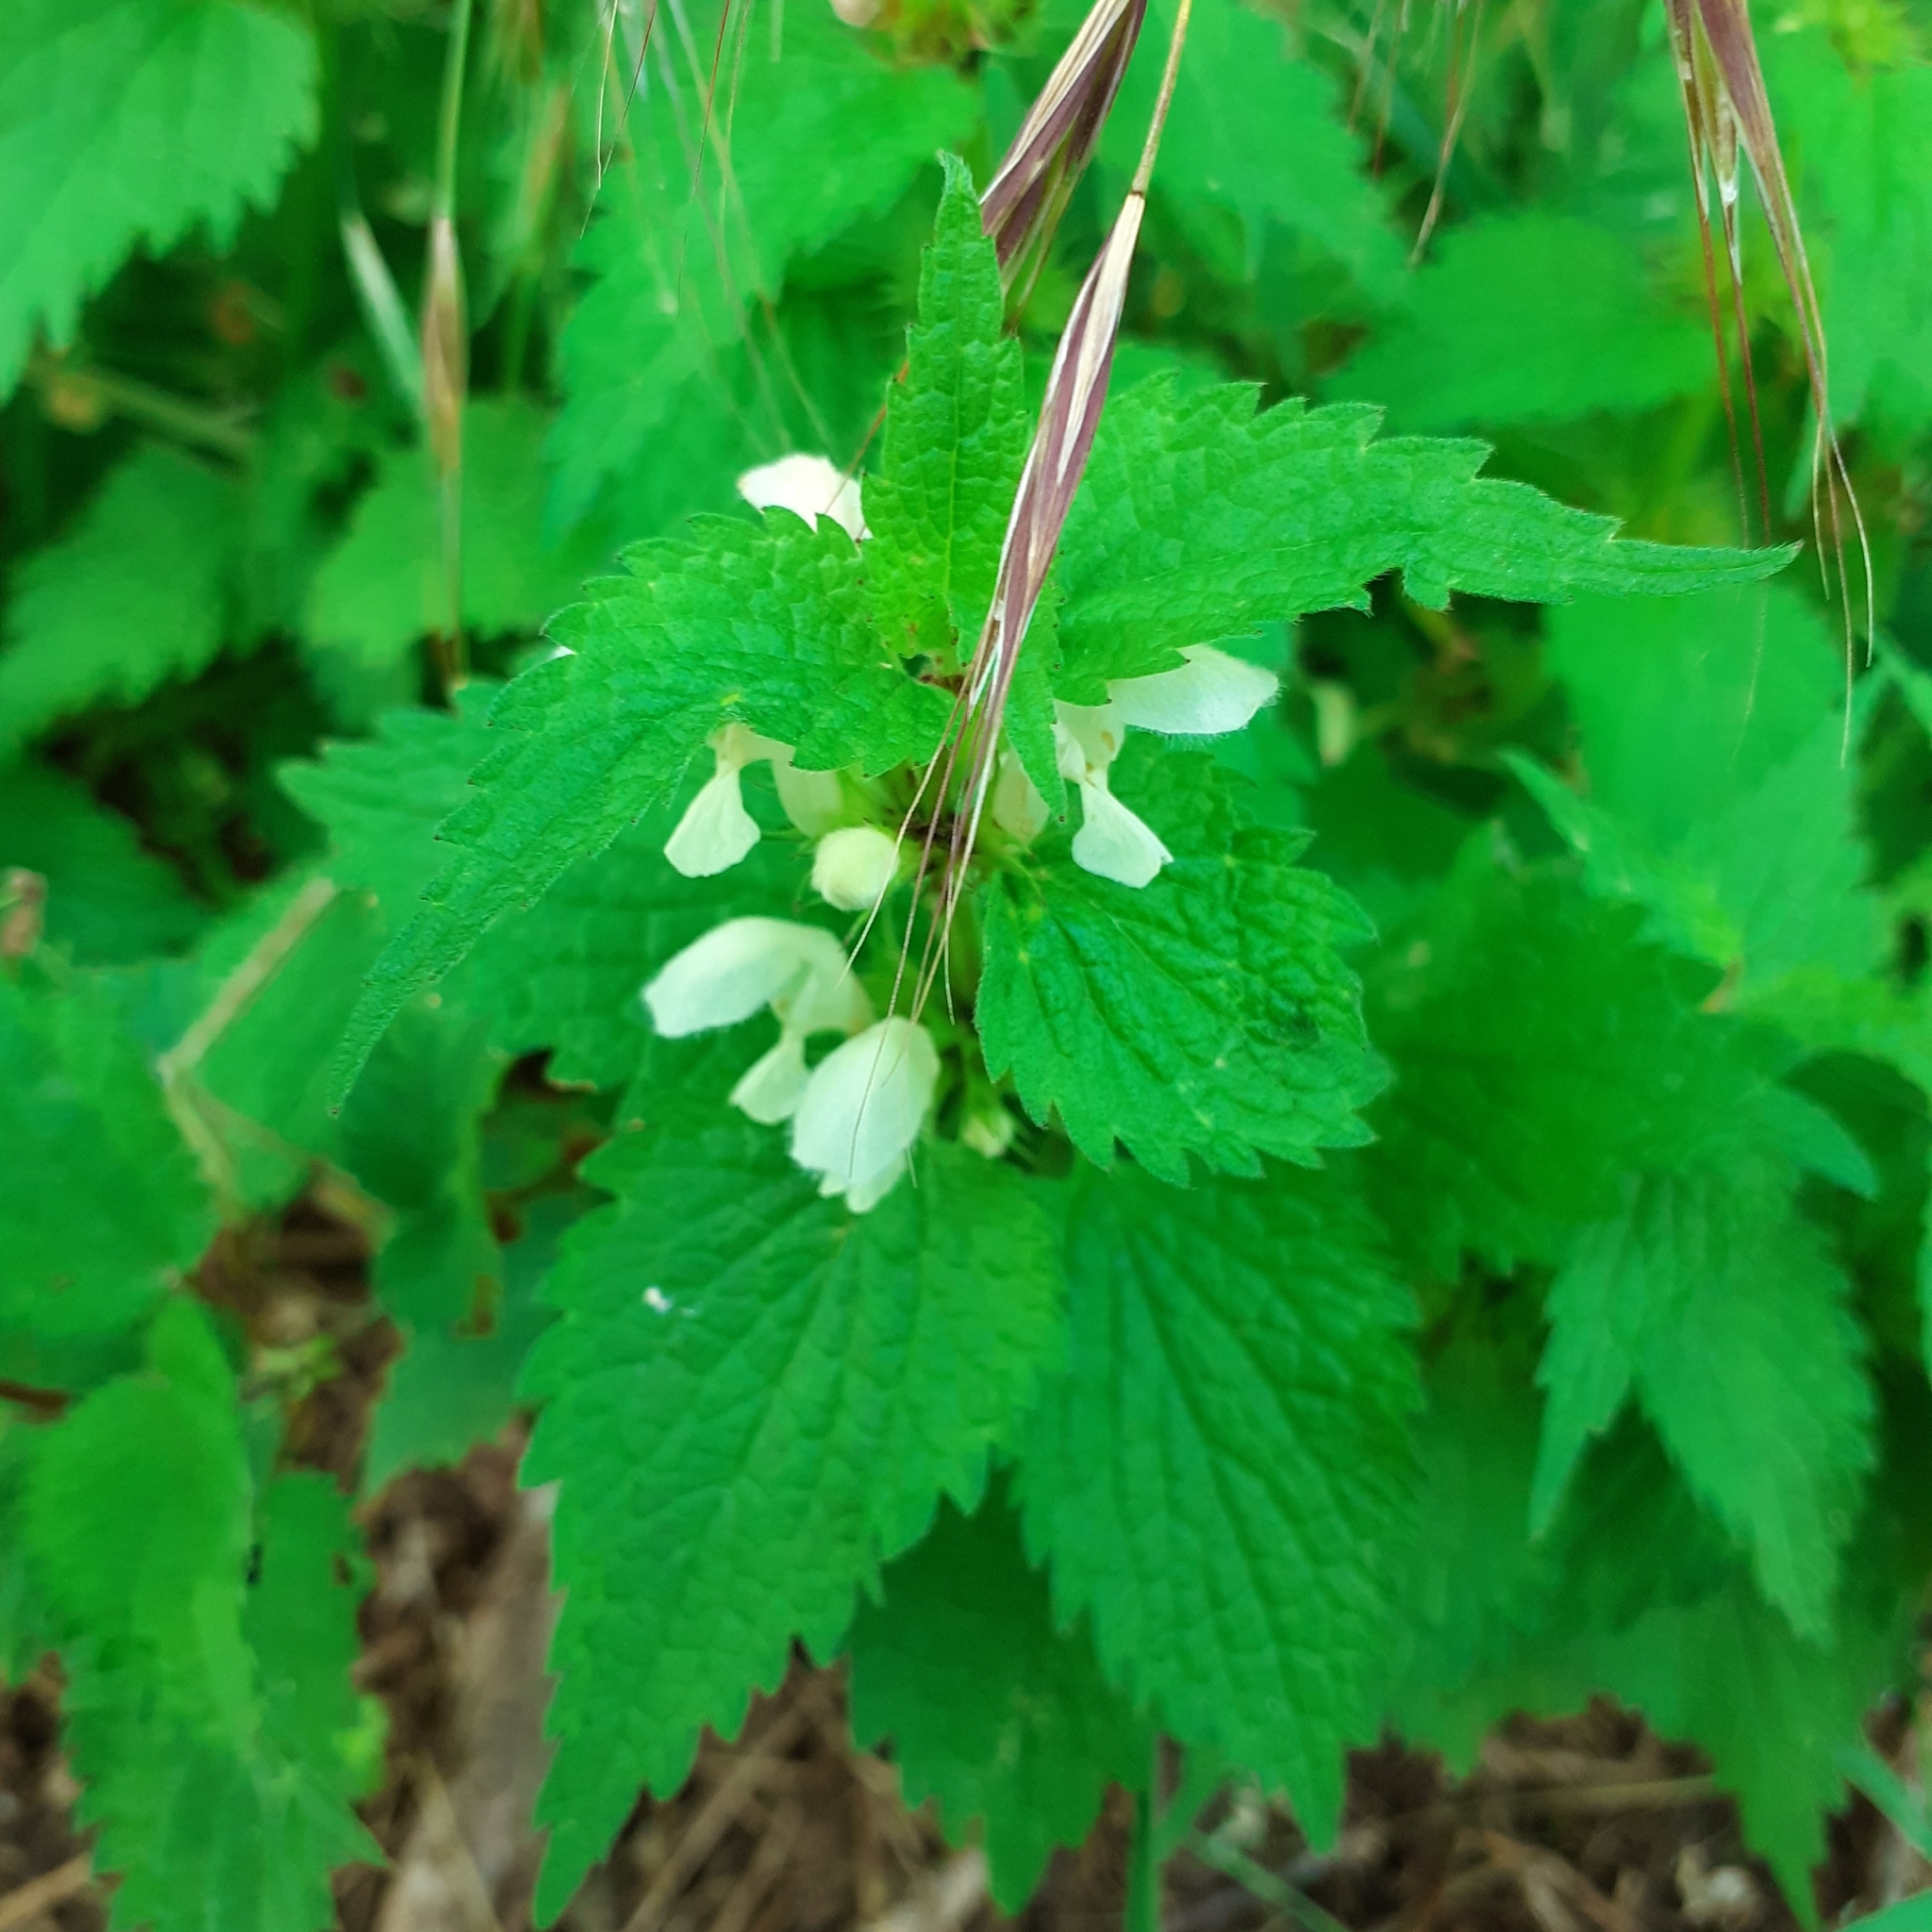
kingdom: Plantae
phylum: Tracheophyta
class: Magnoliopsida
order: Lamiales
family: Lamiaceae
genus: Lamium
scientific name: Lamium album
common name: White dead-nettle
